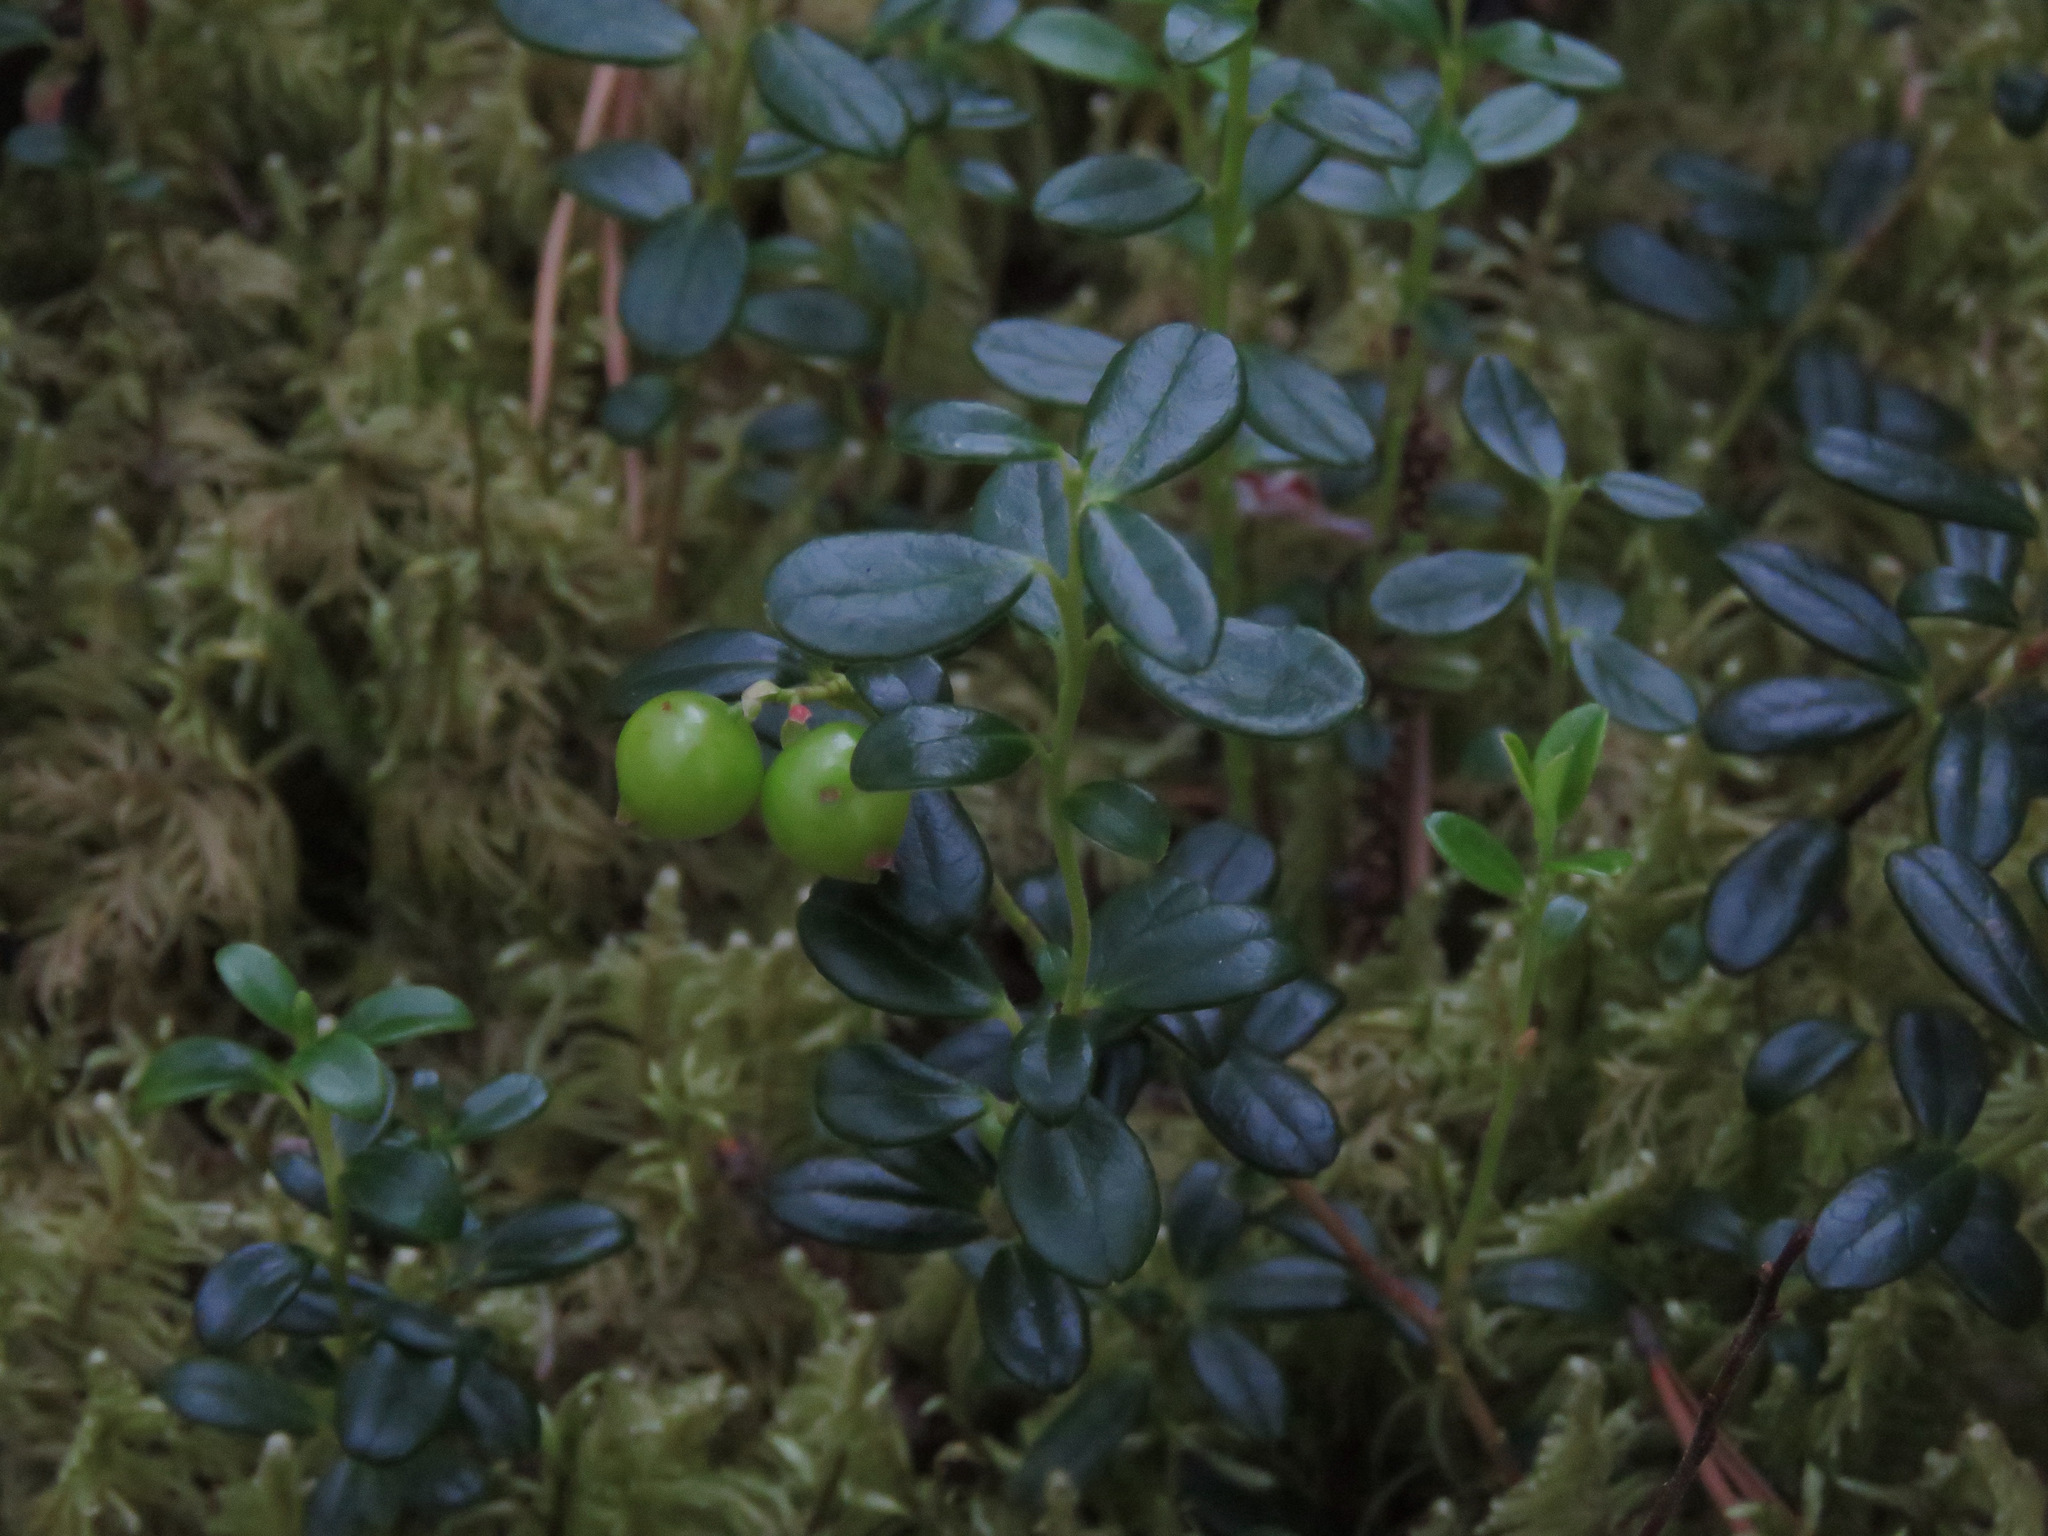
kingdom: Plantae
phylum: Tracheophyta
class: Magnoliopsida
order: Ericales
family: Ericaceae
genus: Vaccinium
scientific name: Vaccinium vitis-idaea
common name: Cowberry
